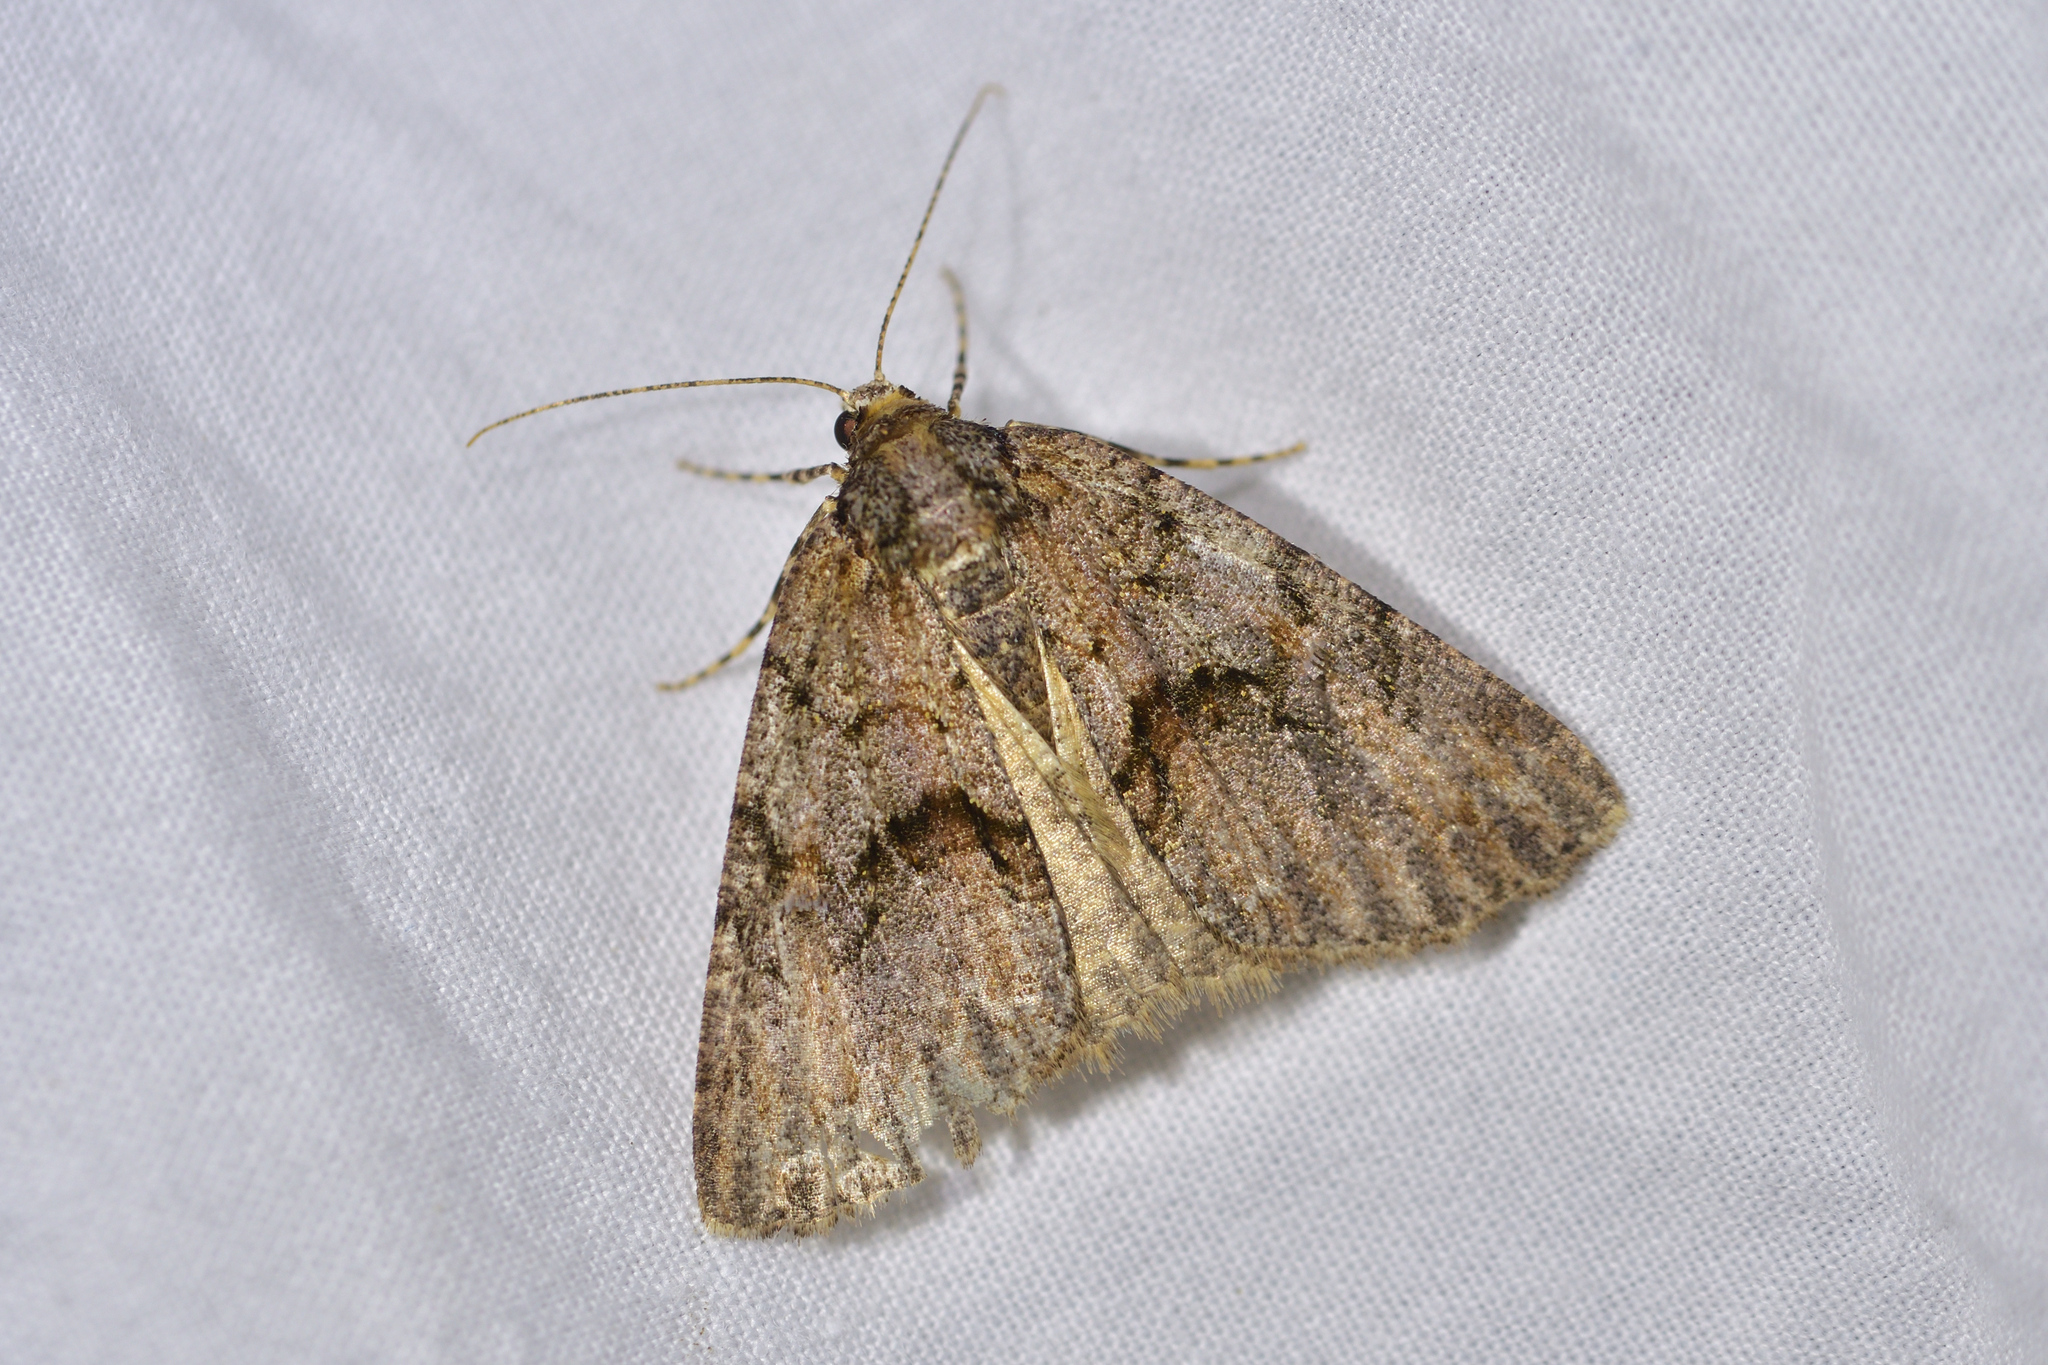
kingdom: Animalia
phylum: Arthropoda
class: Insecta
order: Lepidoptera
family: Geometridae
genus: Pseudocoremia
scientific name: Pseudocoremia suavis
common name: Common forest looper
